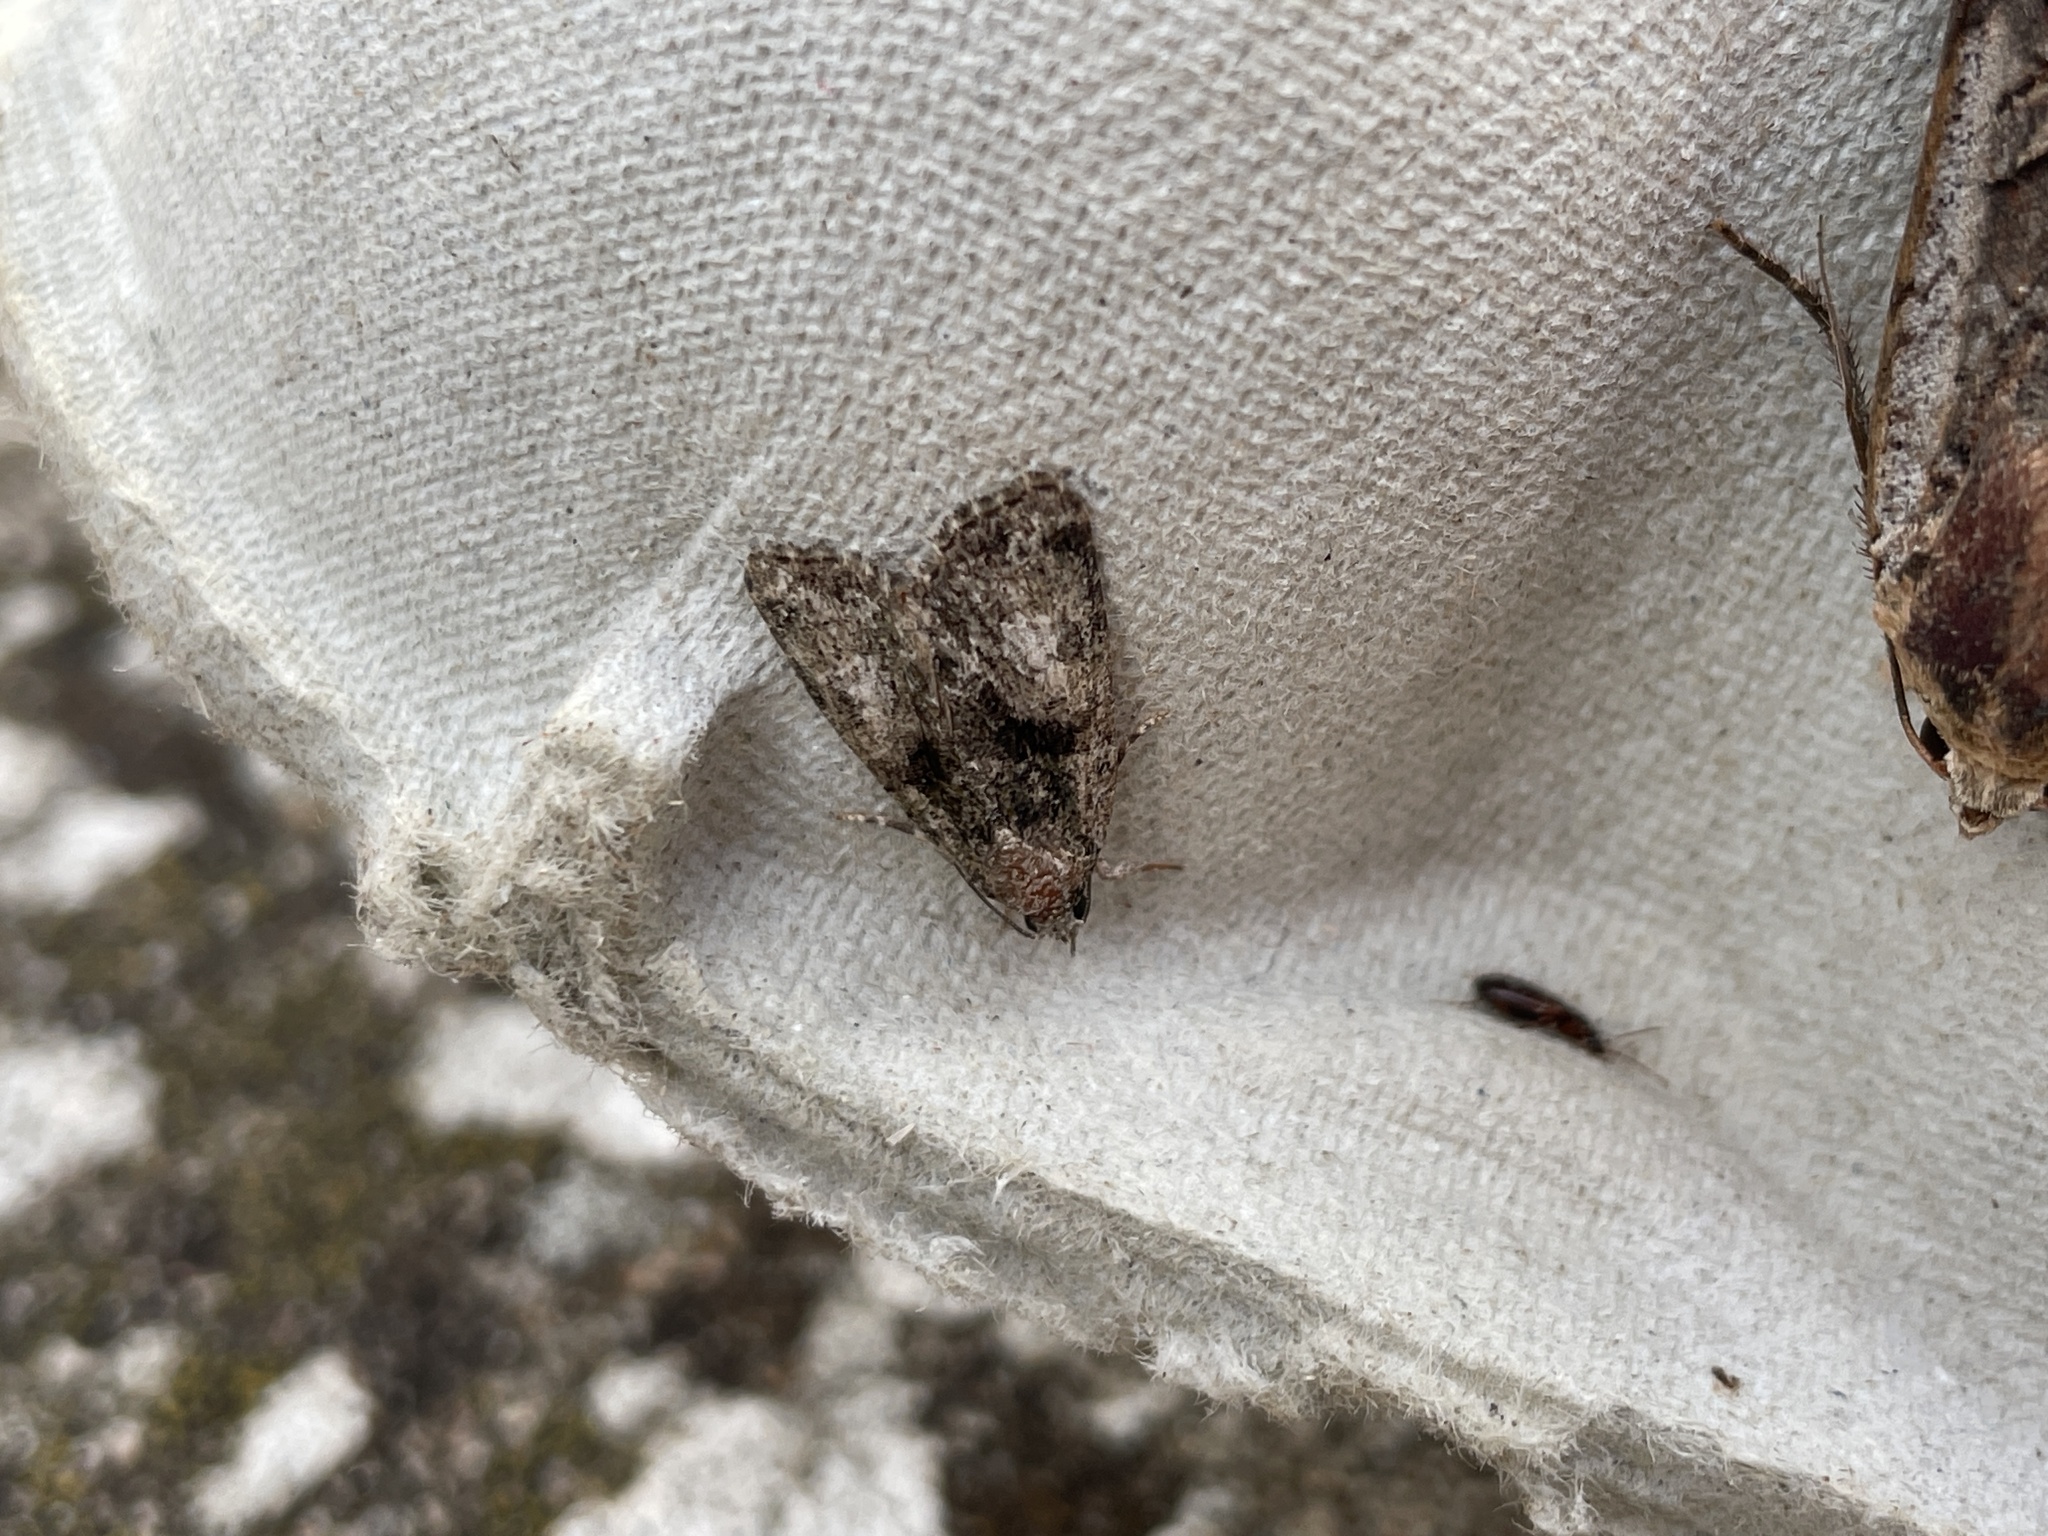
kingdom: Animalia
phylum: Arthropoda
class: Insecta
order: Lepidoptera
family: Noctuidae
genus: Cryphia
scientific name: Cryphia algae
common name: Tree-lichen beauty
